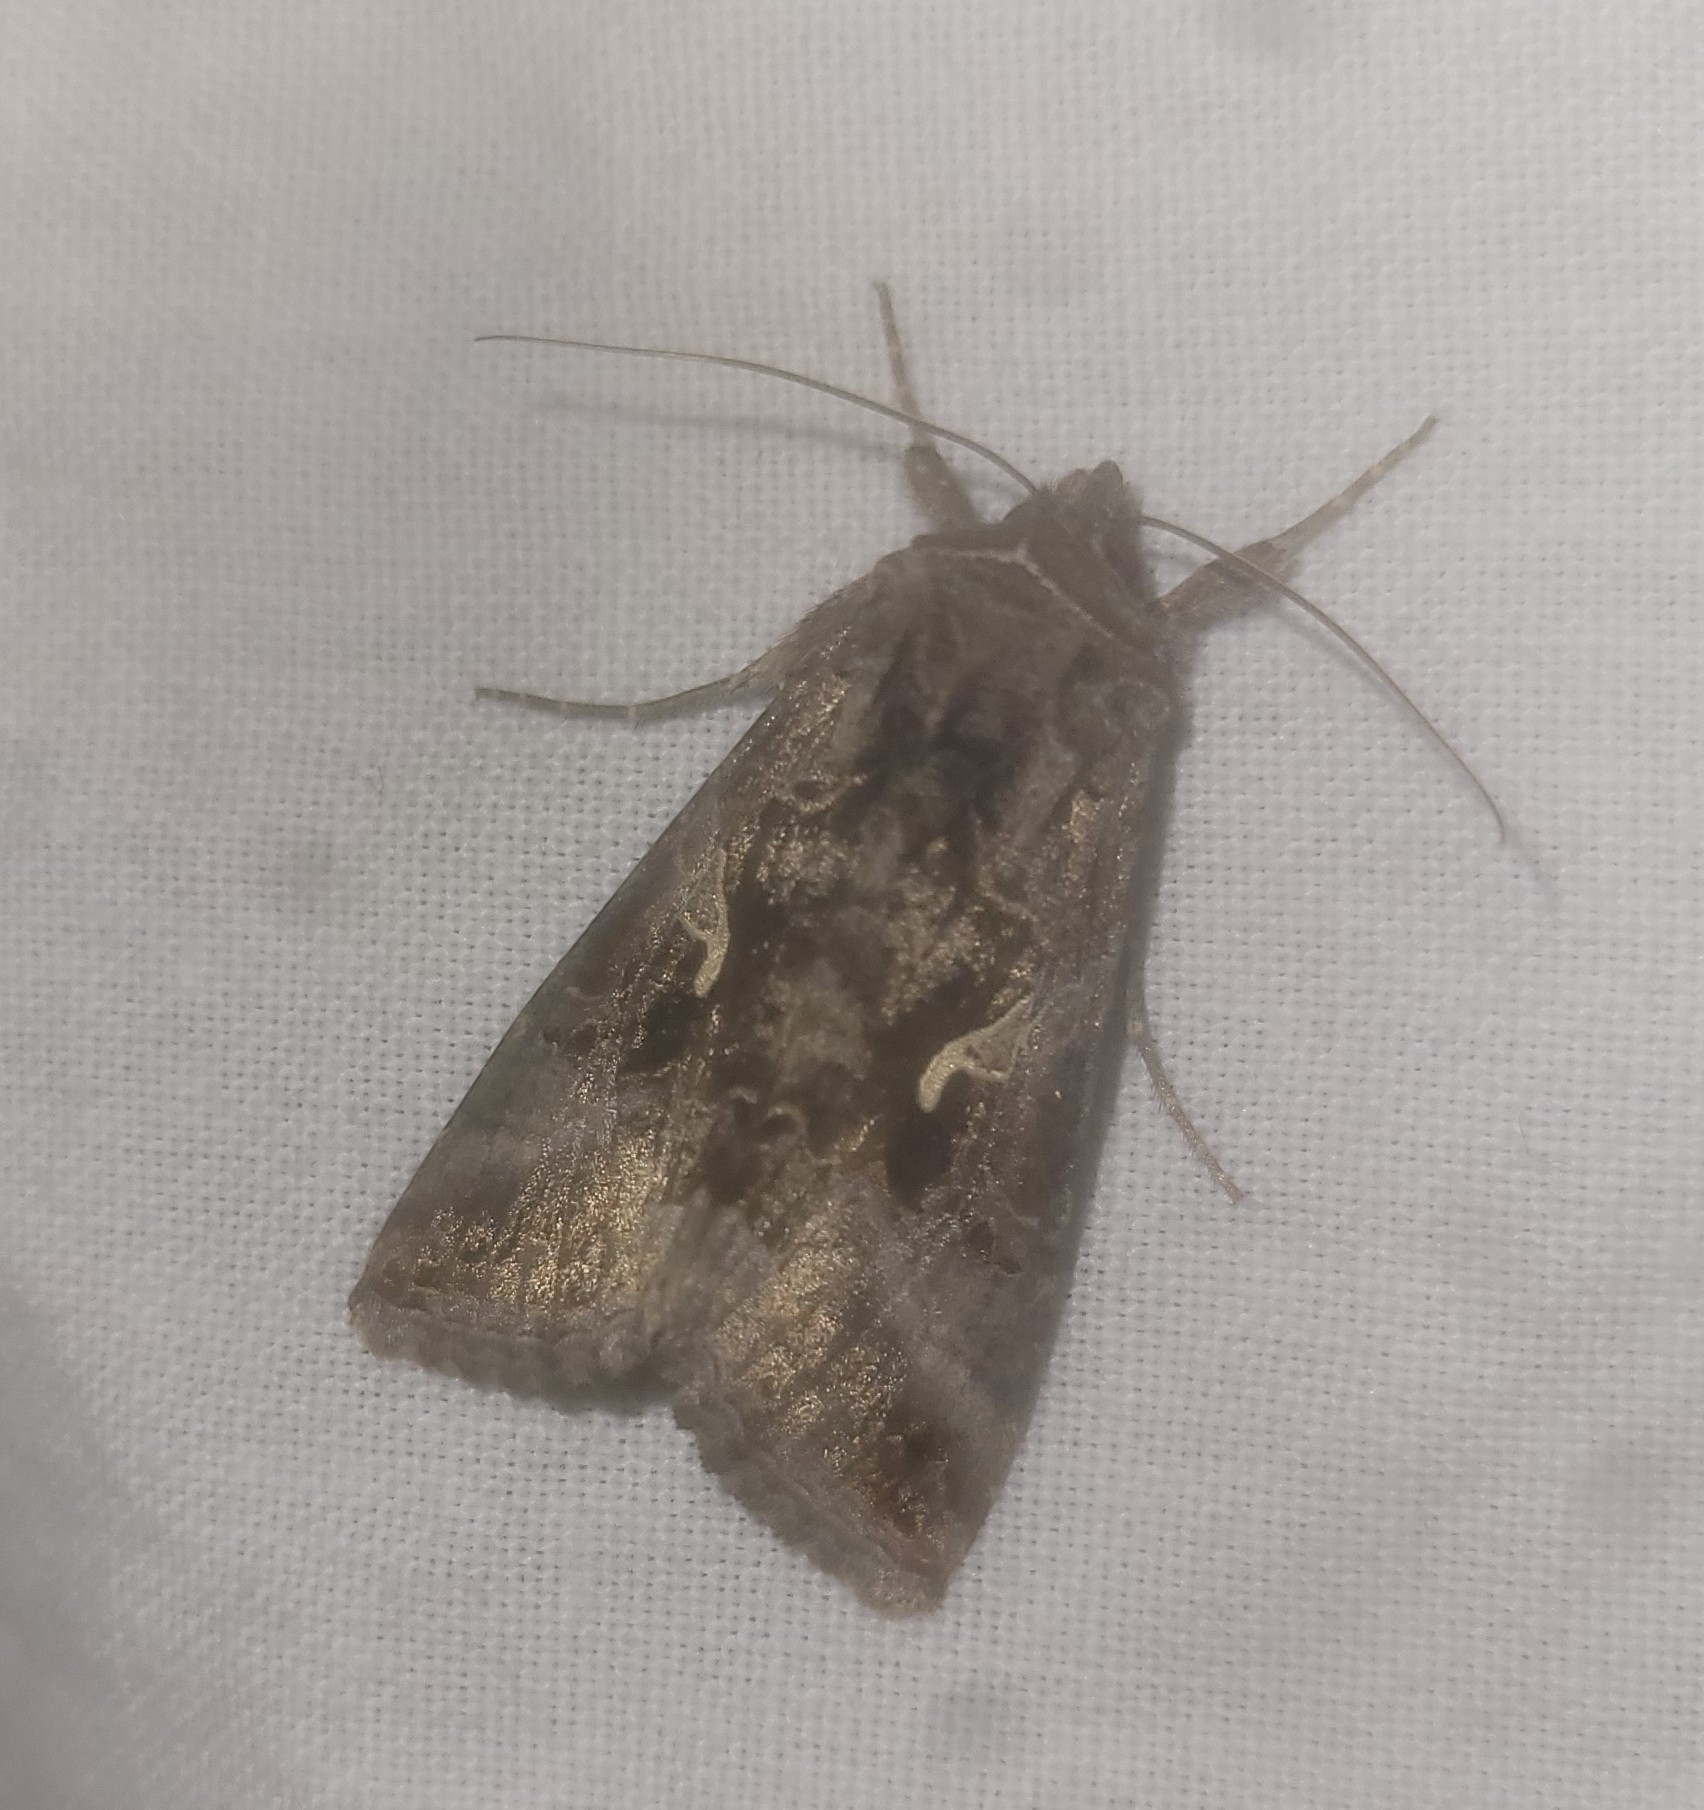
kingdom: Animalia
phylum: Arthropoda
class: Insecta
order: Lepidoptera
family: Noctuidae
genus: Autographa
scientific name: Autographa gamma
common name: Silver y
